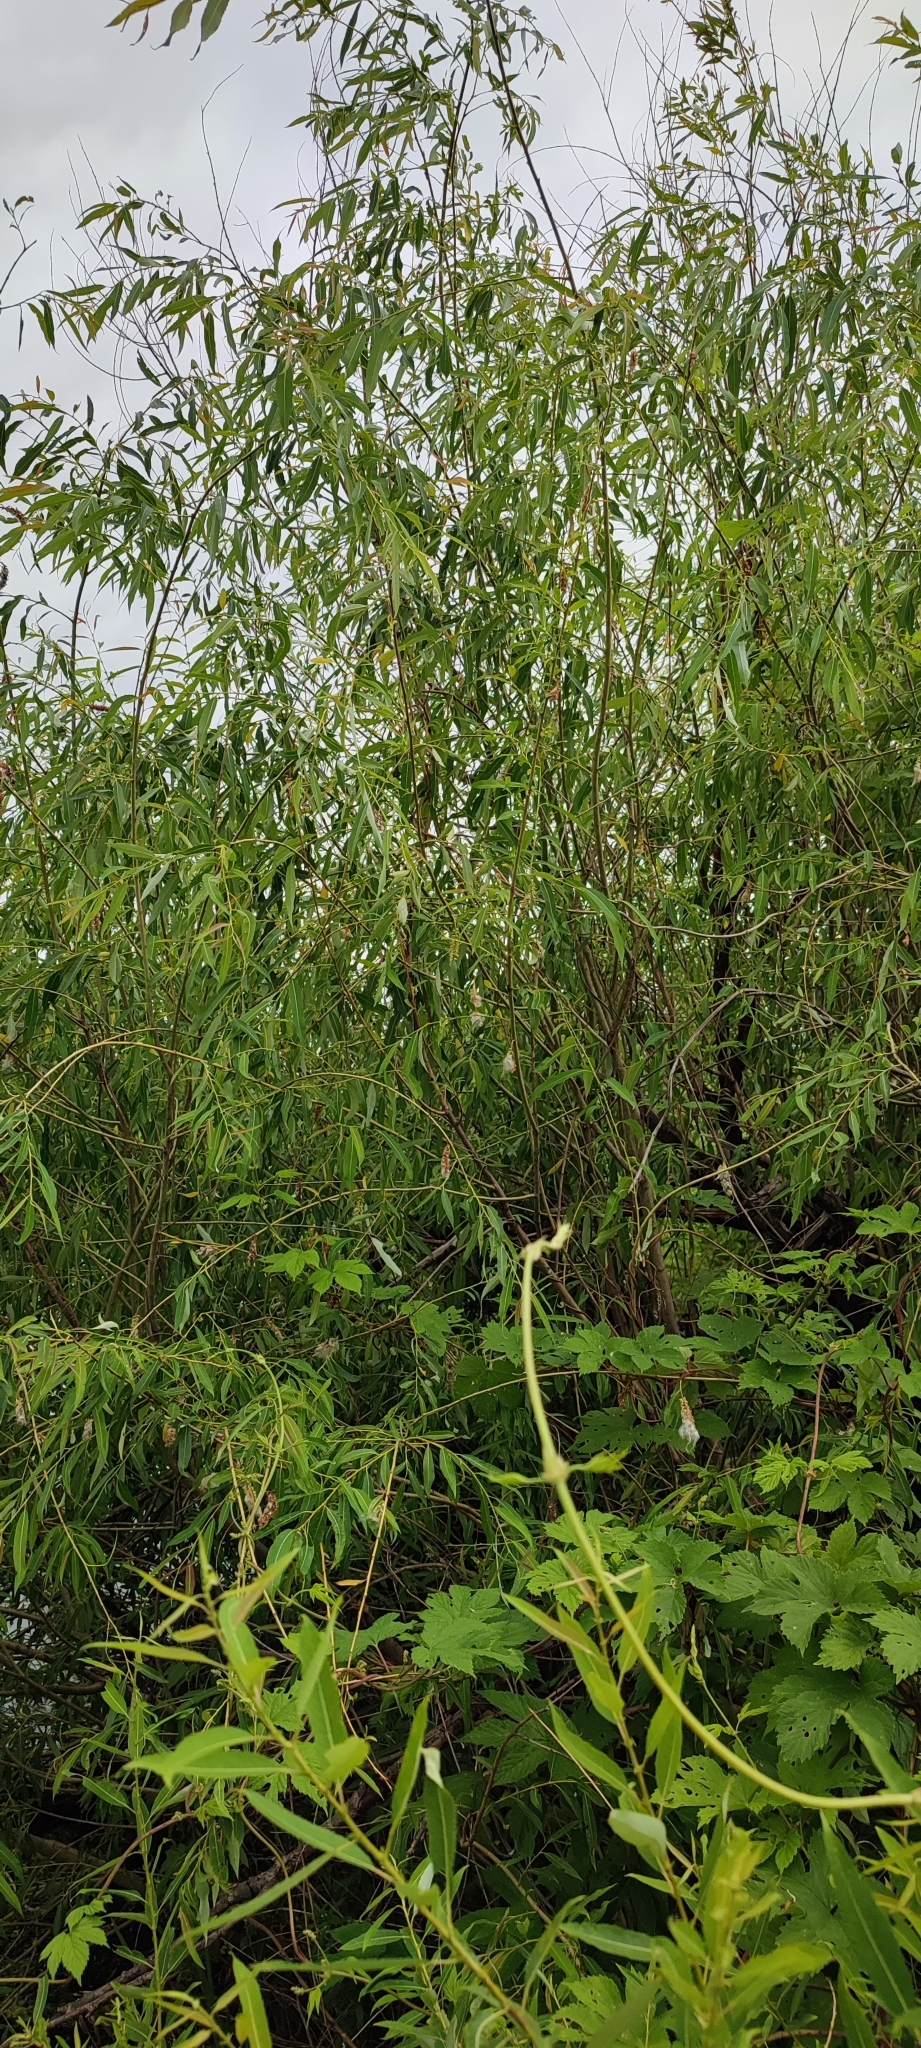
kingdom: Plantae
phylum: Tracheophyta
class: Magnoliopsida
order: Malpighiales
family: Salicaceae
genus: Salix
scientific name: Salix triandra
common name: Almond willow
